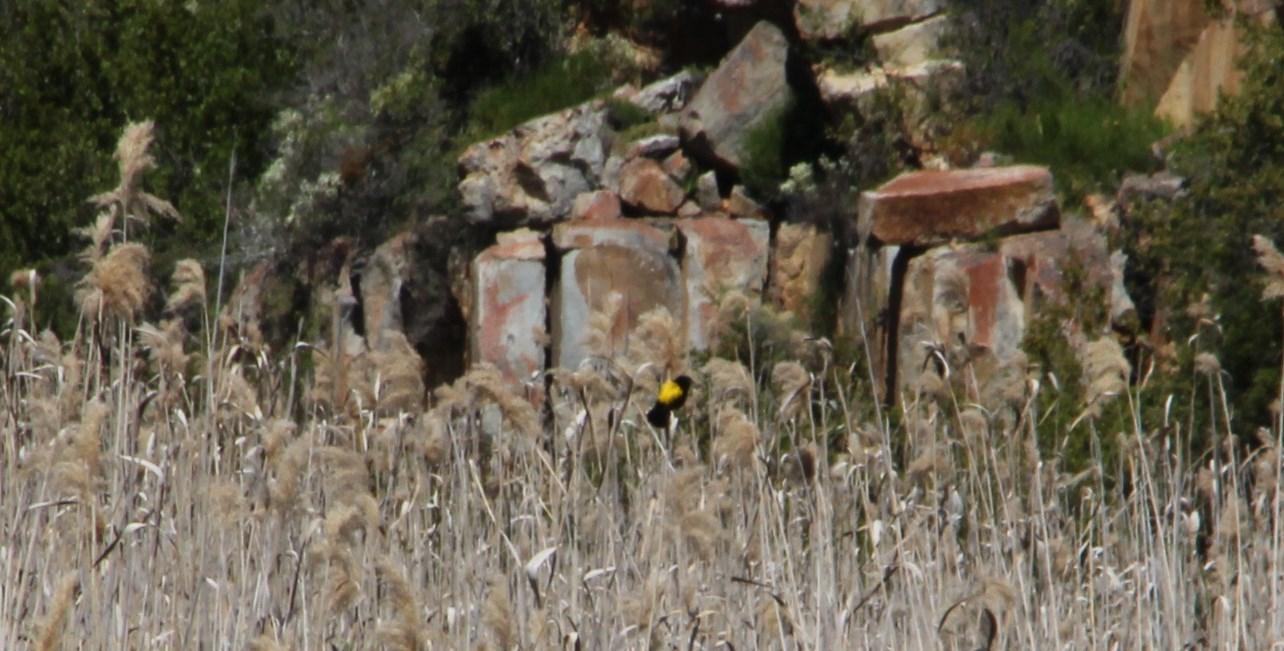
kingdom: Animalia
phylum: Chordata
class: Aves
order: Passeriformes
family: Ploceidae
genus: Euplectes
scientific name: Euplectes capensis
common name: Yellow bishop
